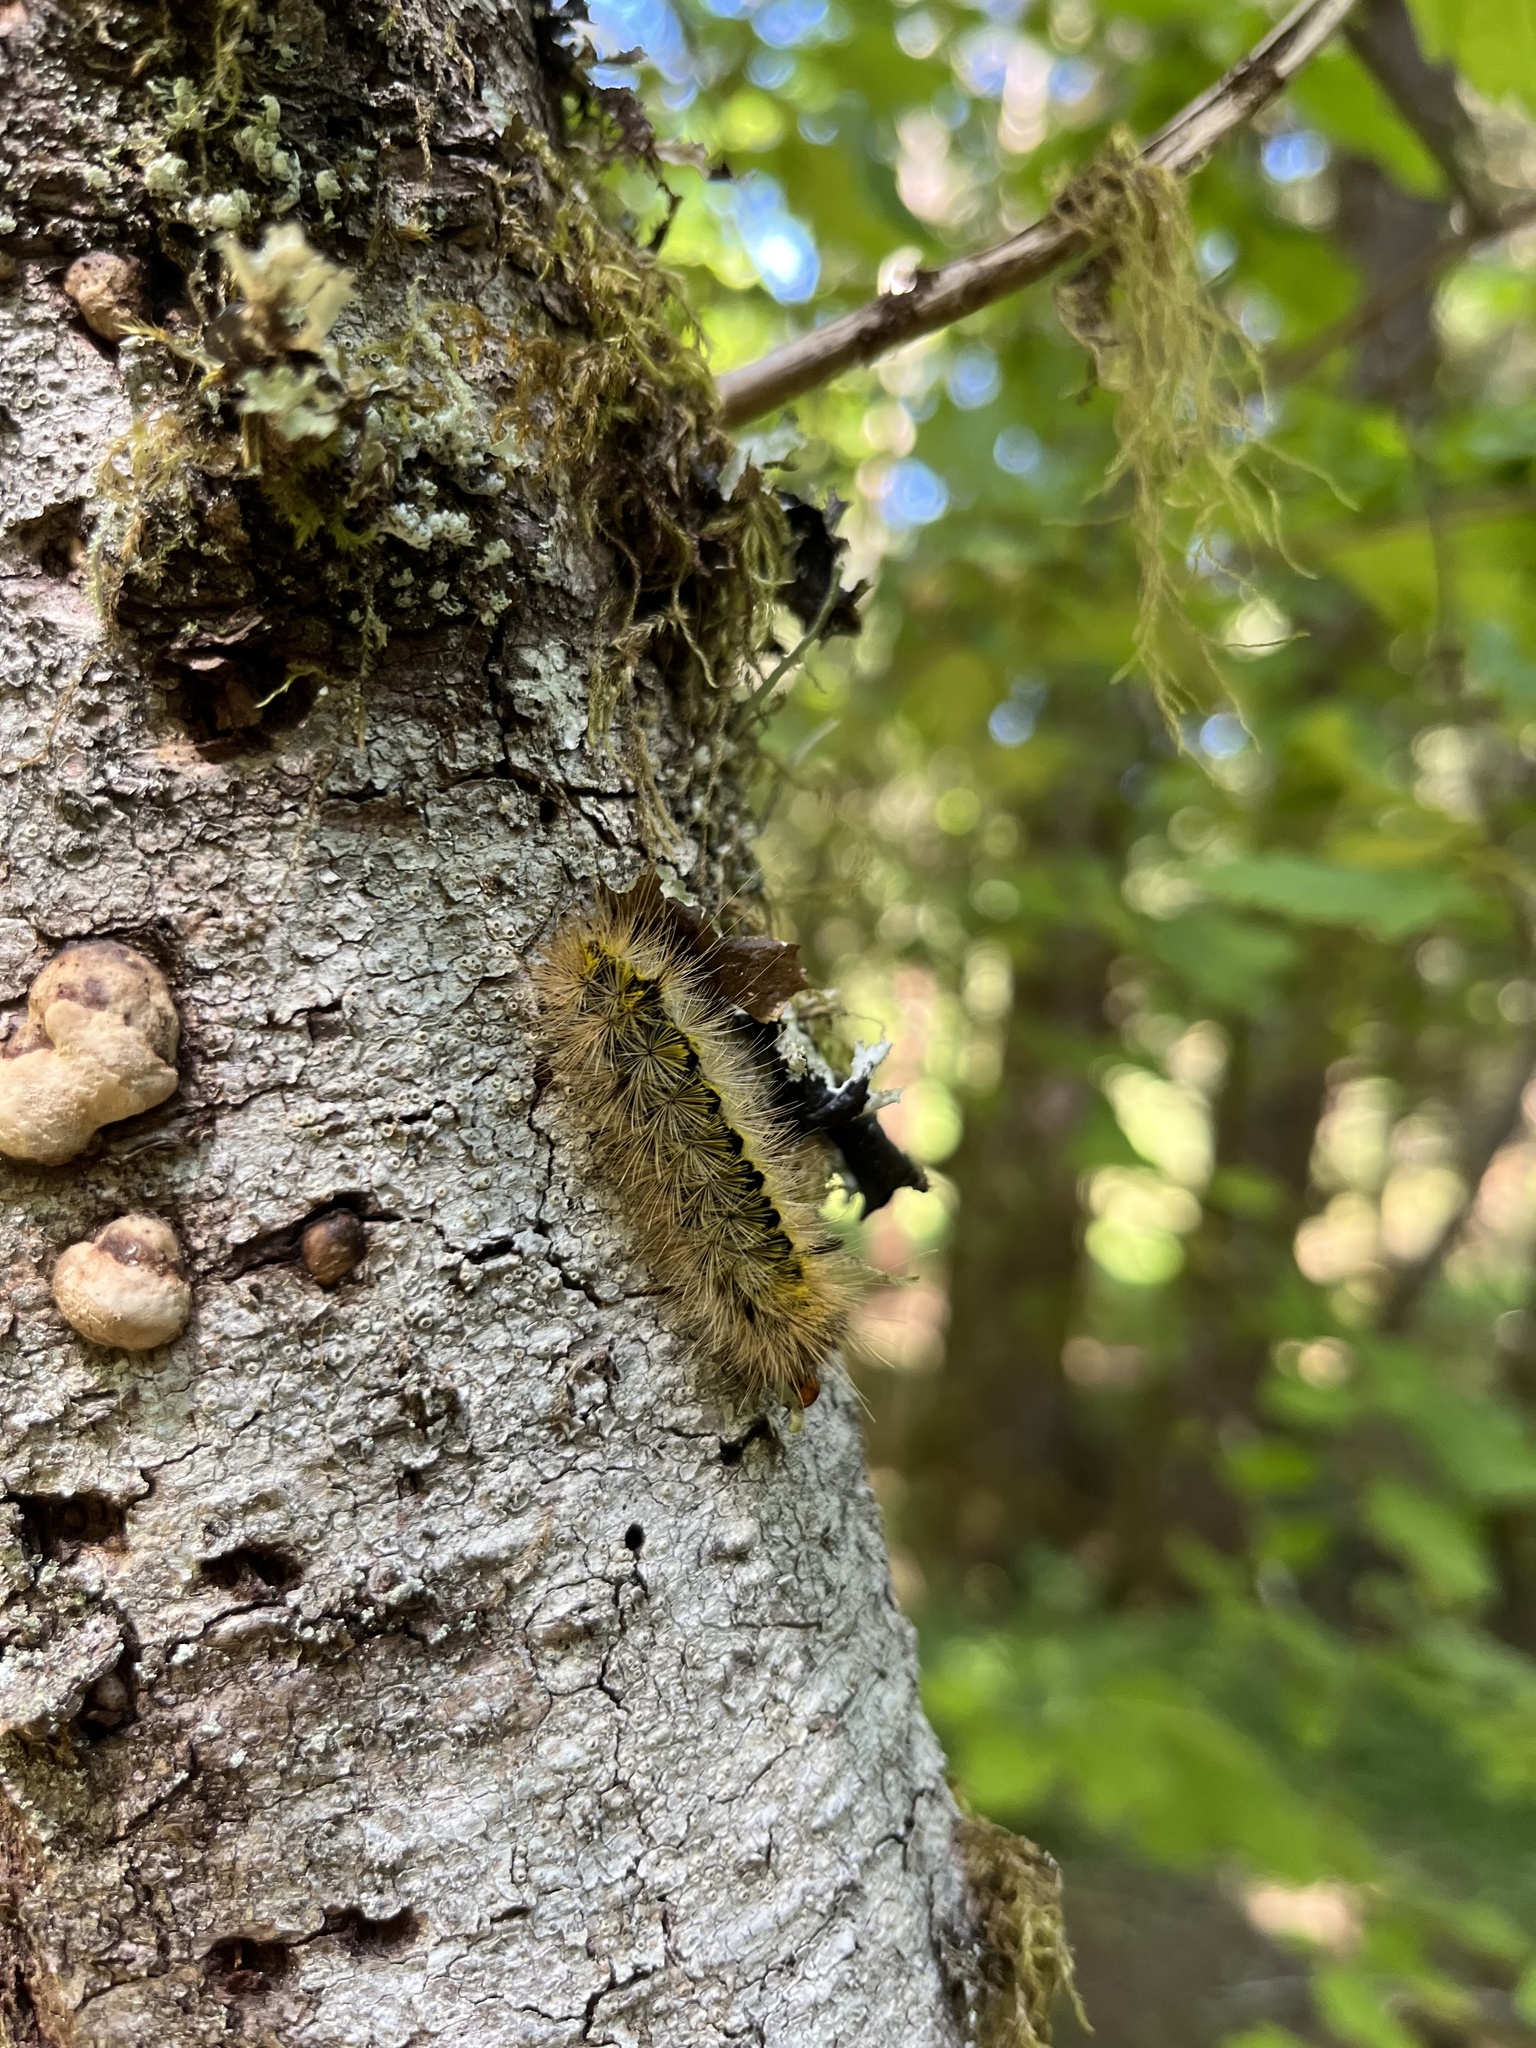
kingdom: Animalia
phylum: Arthropoda
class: Insecta
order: Lepidoptera
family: Erebidae
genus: Lophocampa
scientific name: Lophocampa argentata
